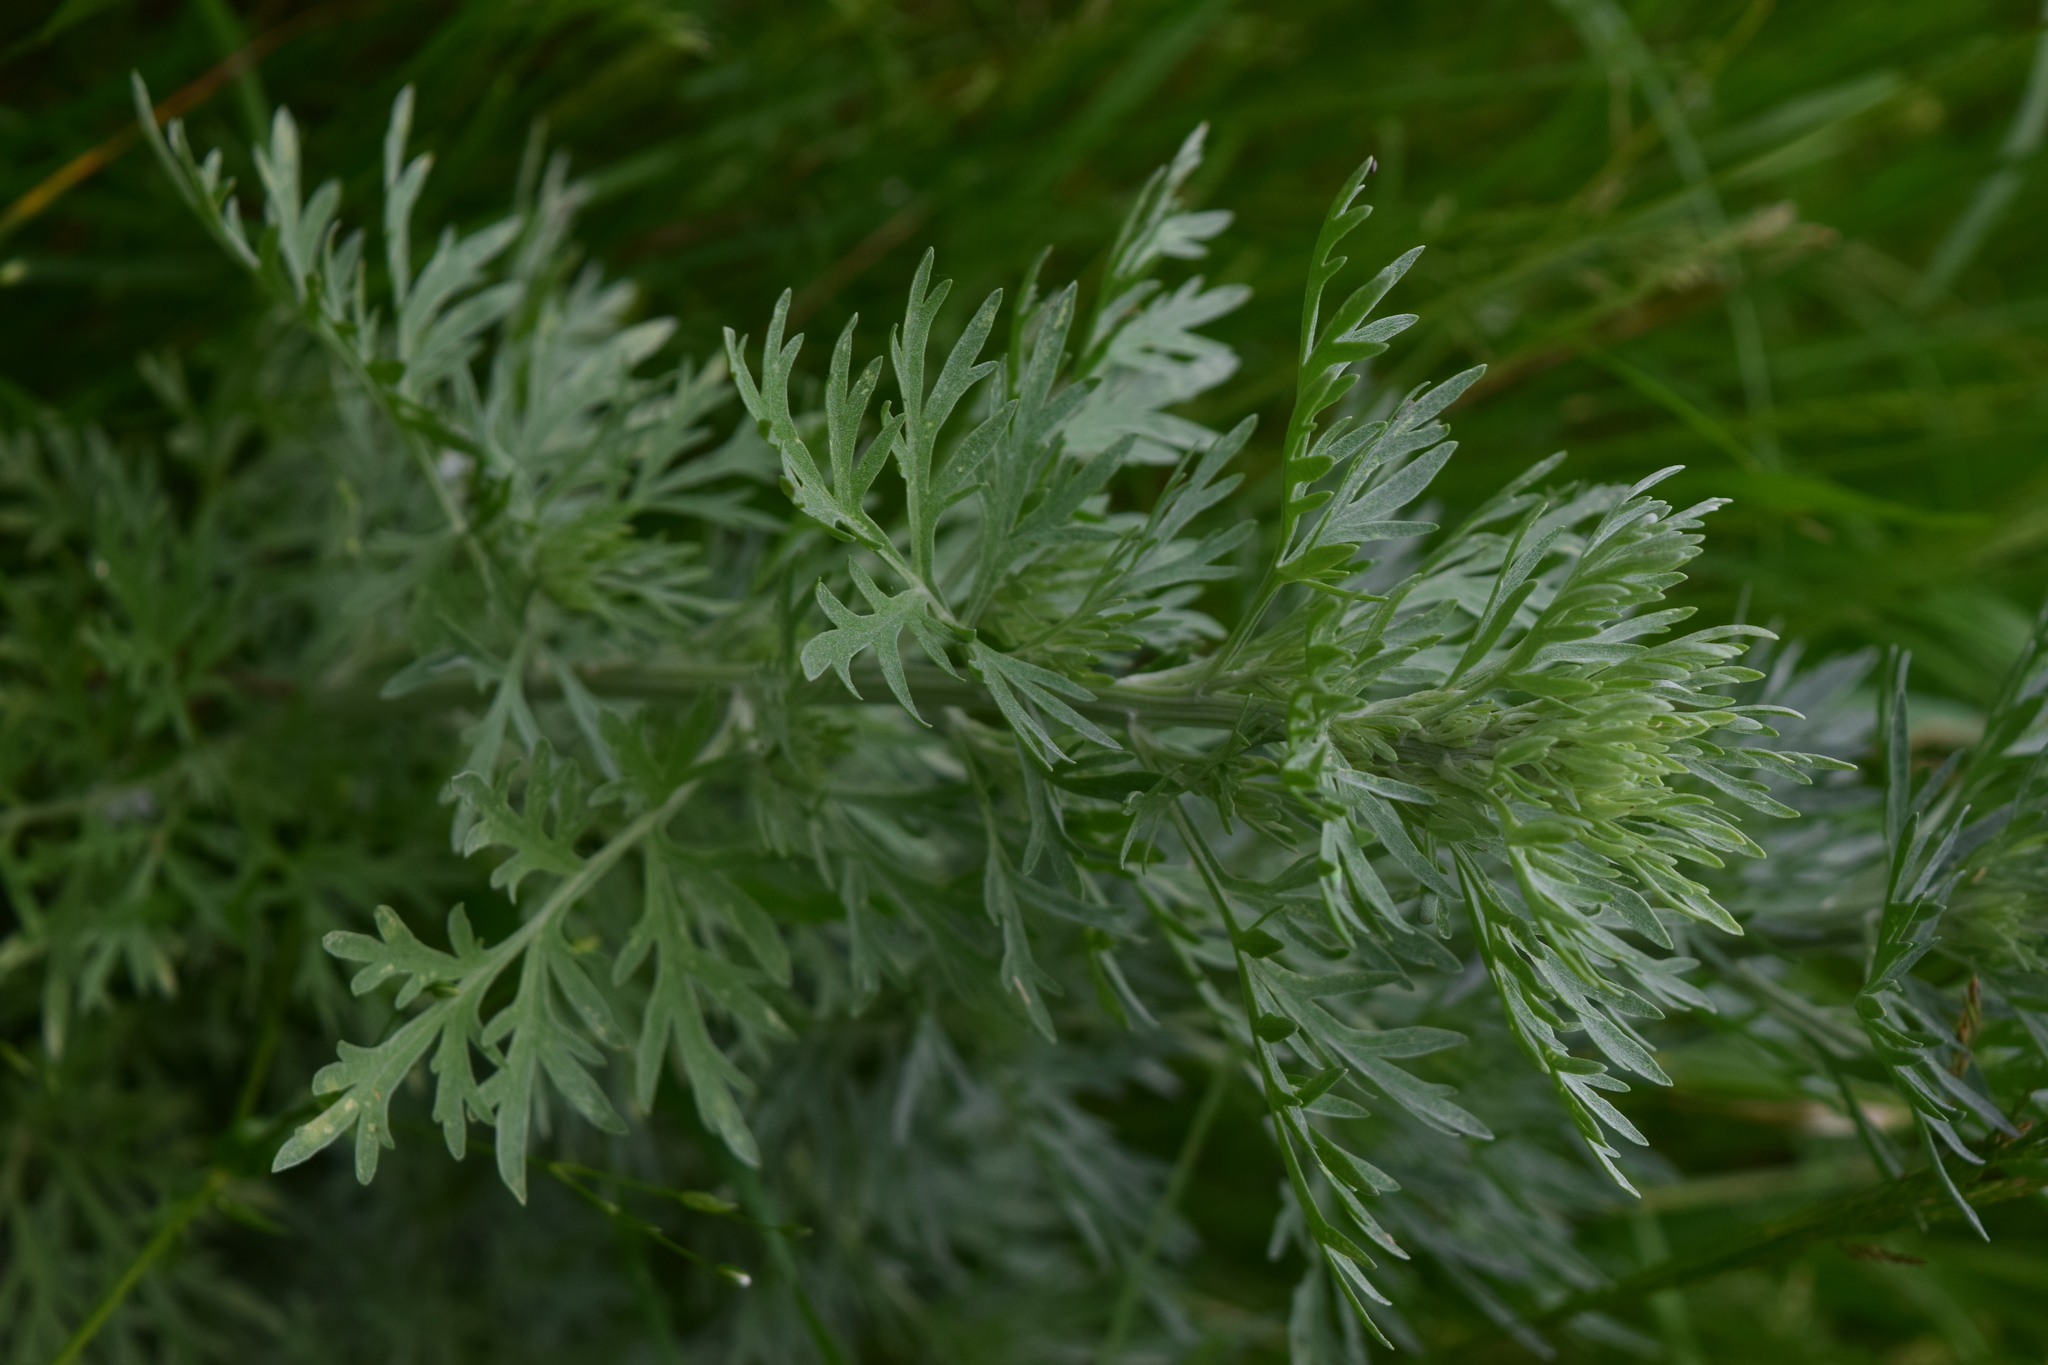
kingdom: Plantae
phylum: Tracheophyta
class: Magnoliopsida
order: Asterales
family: Asteraceae
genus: Artemisia
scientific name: Artemisia absinthium
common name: Wormwood
